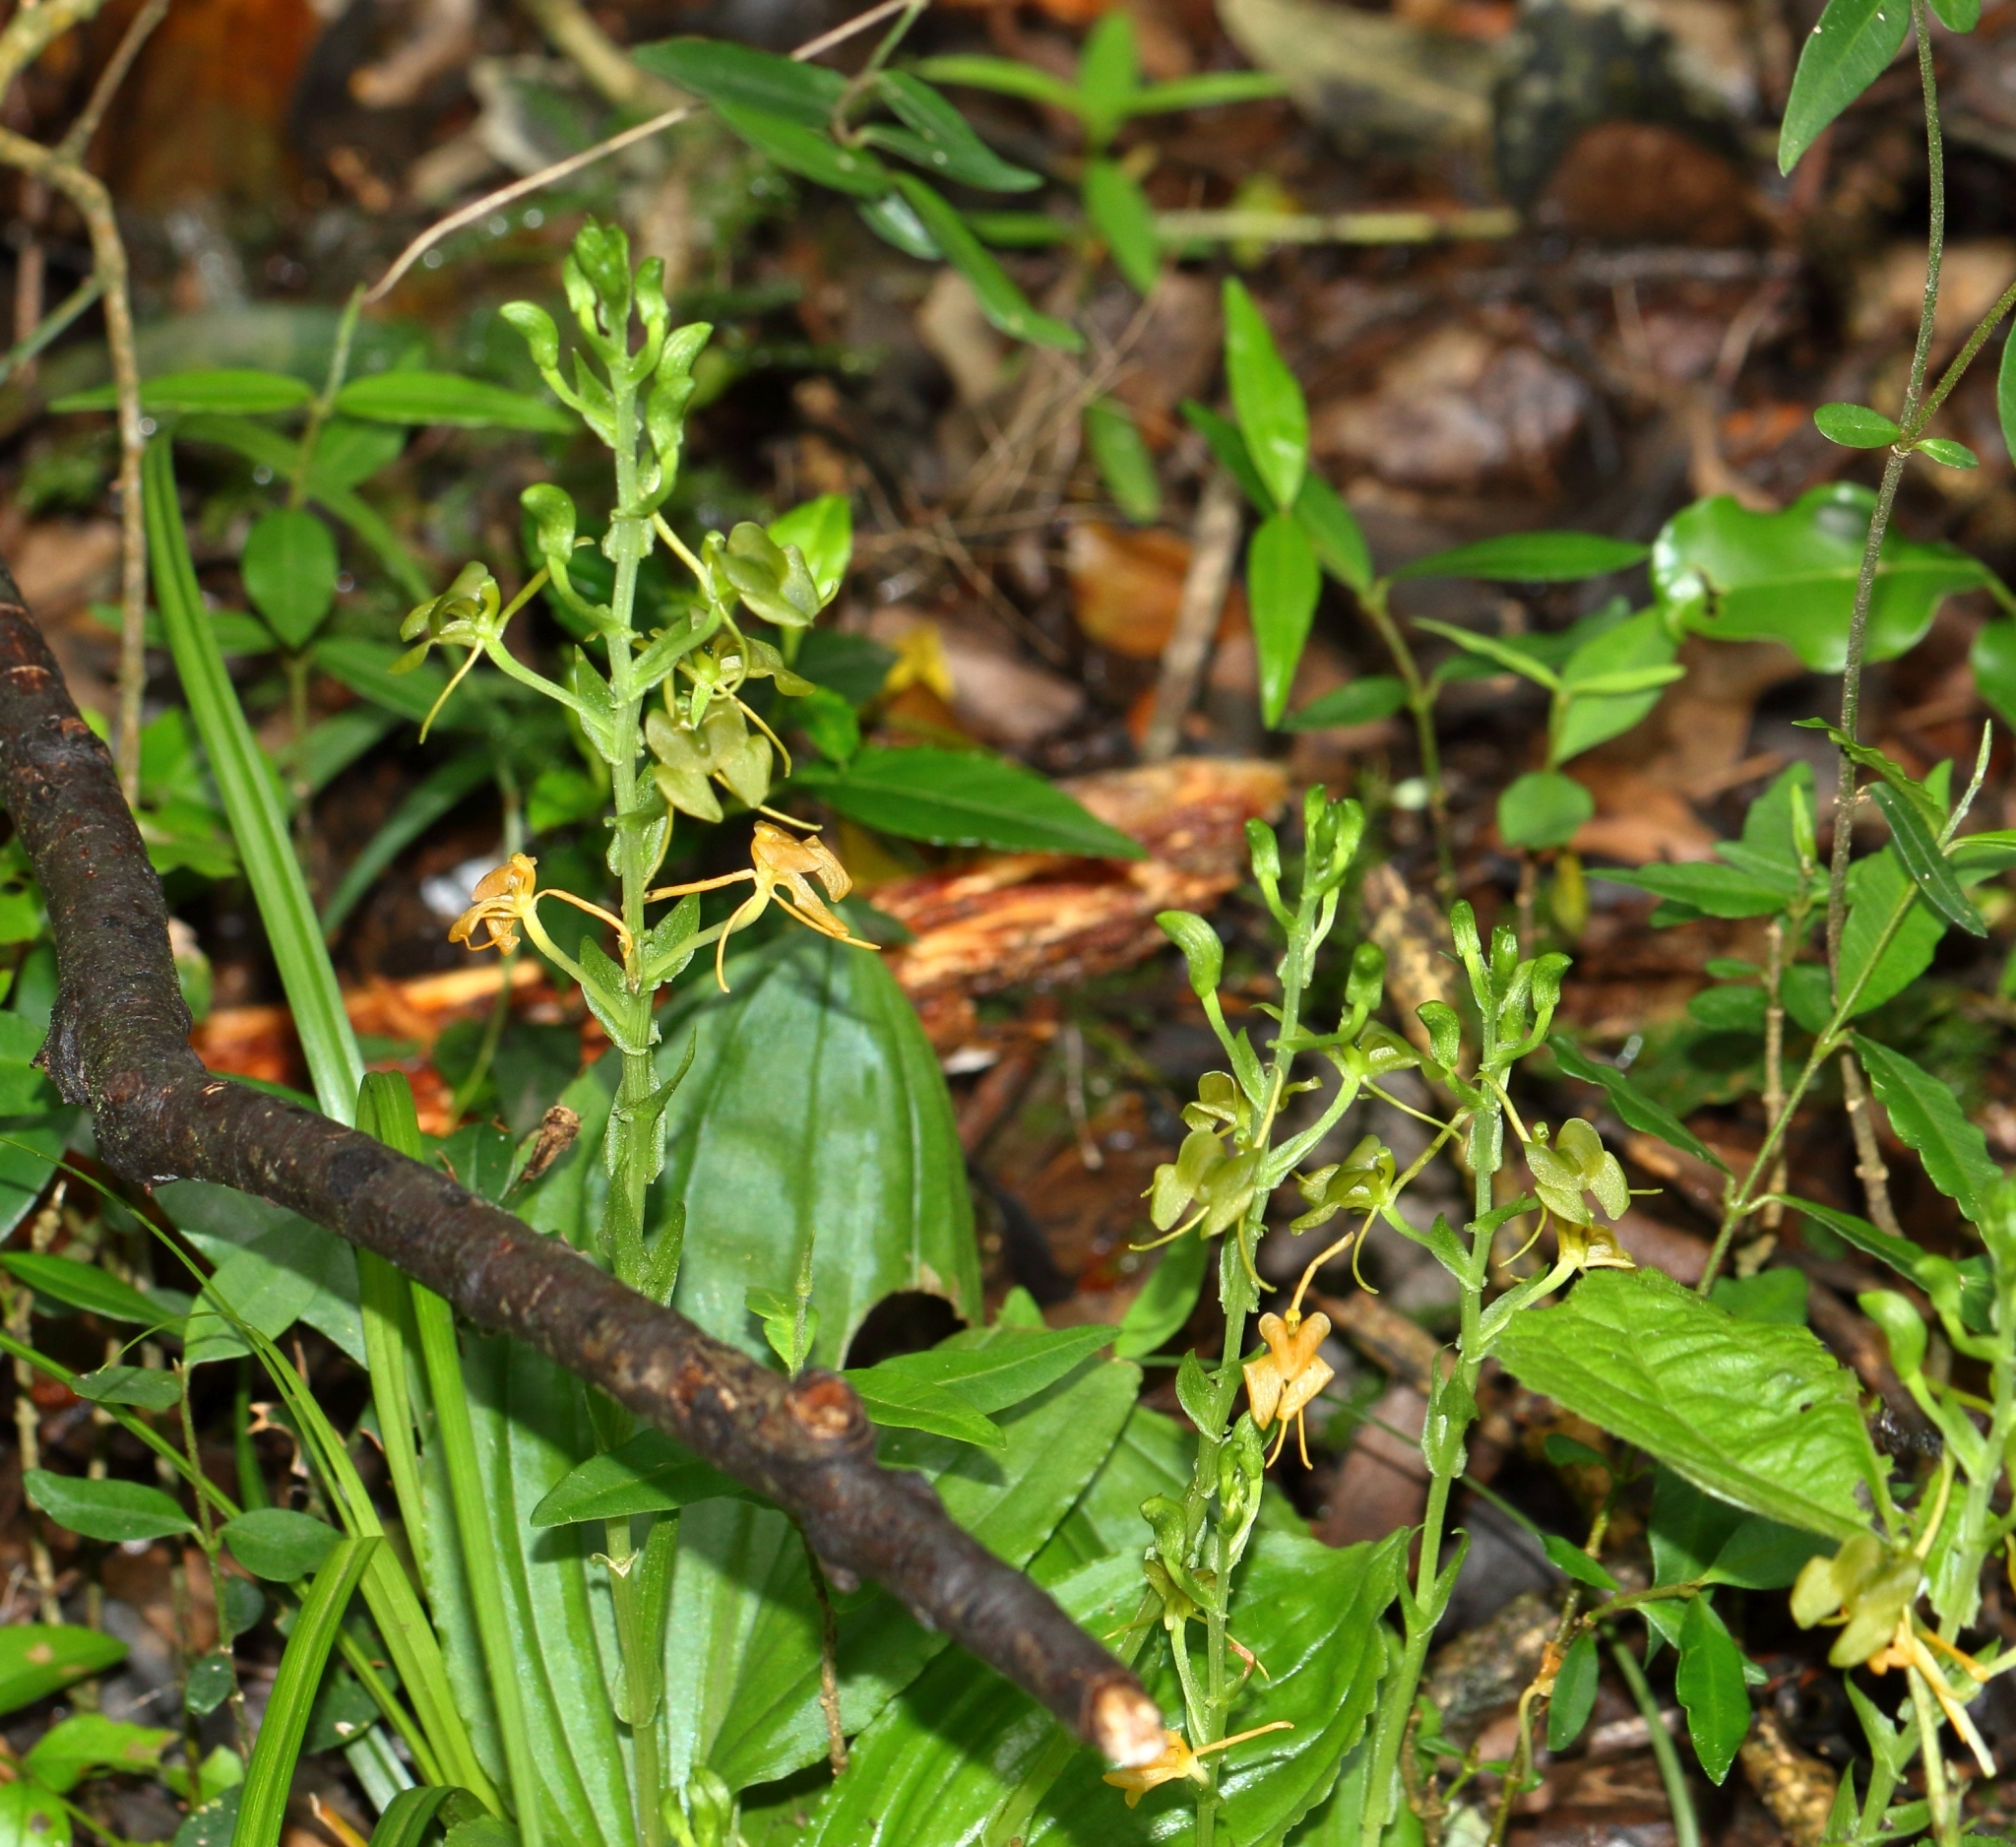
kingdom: Plantae
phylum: Tracheophyta
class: Liliopsida
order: Asparagales
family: Orchidaceae
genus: Liparis
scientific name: Liparis bowkeri
